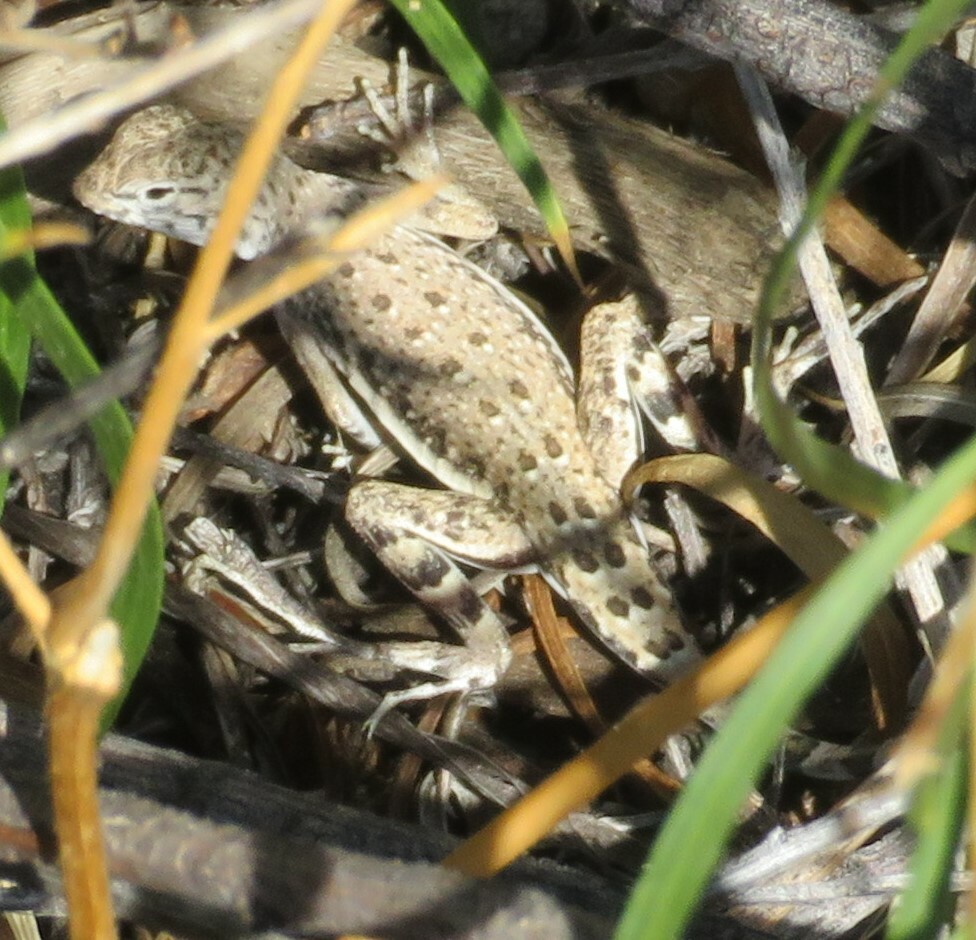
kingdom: Animalia
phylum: Chordata
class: Squamata
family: Phrynosomatidae
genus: Callisaurus
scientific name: Callisaurus draconoides
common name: Zebra-tailed lizard
